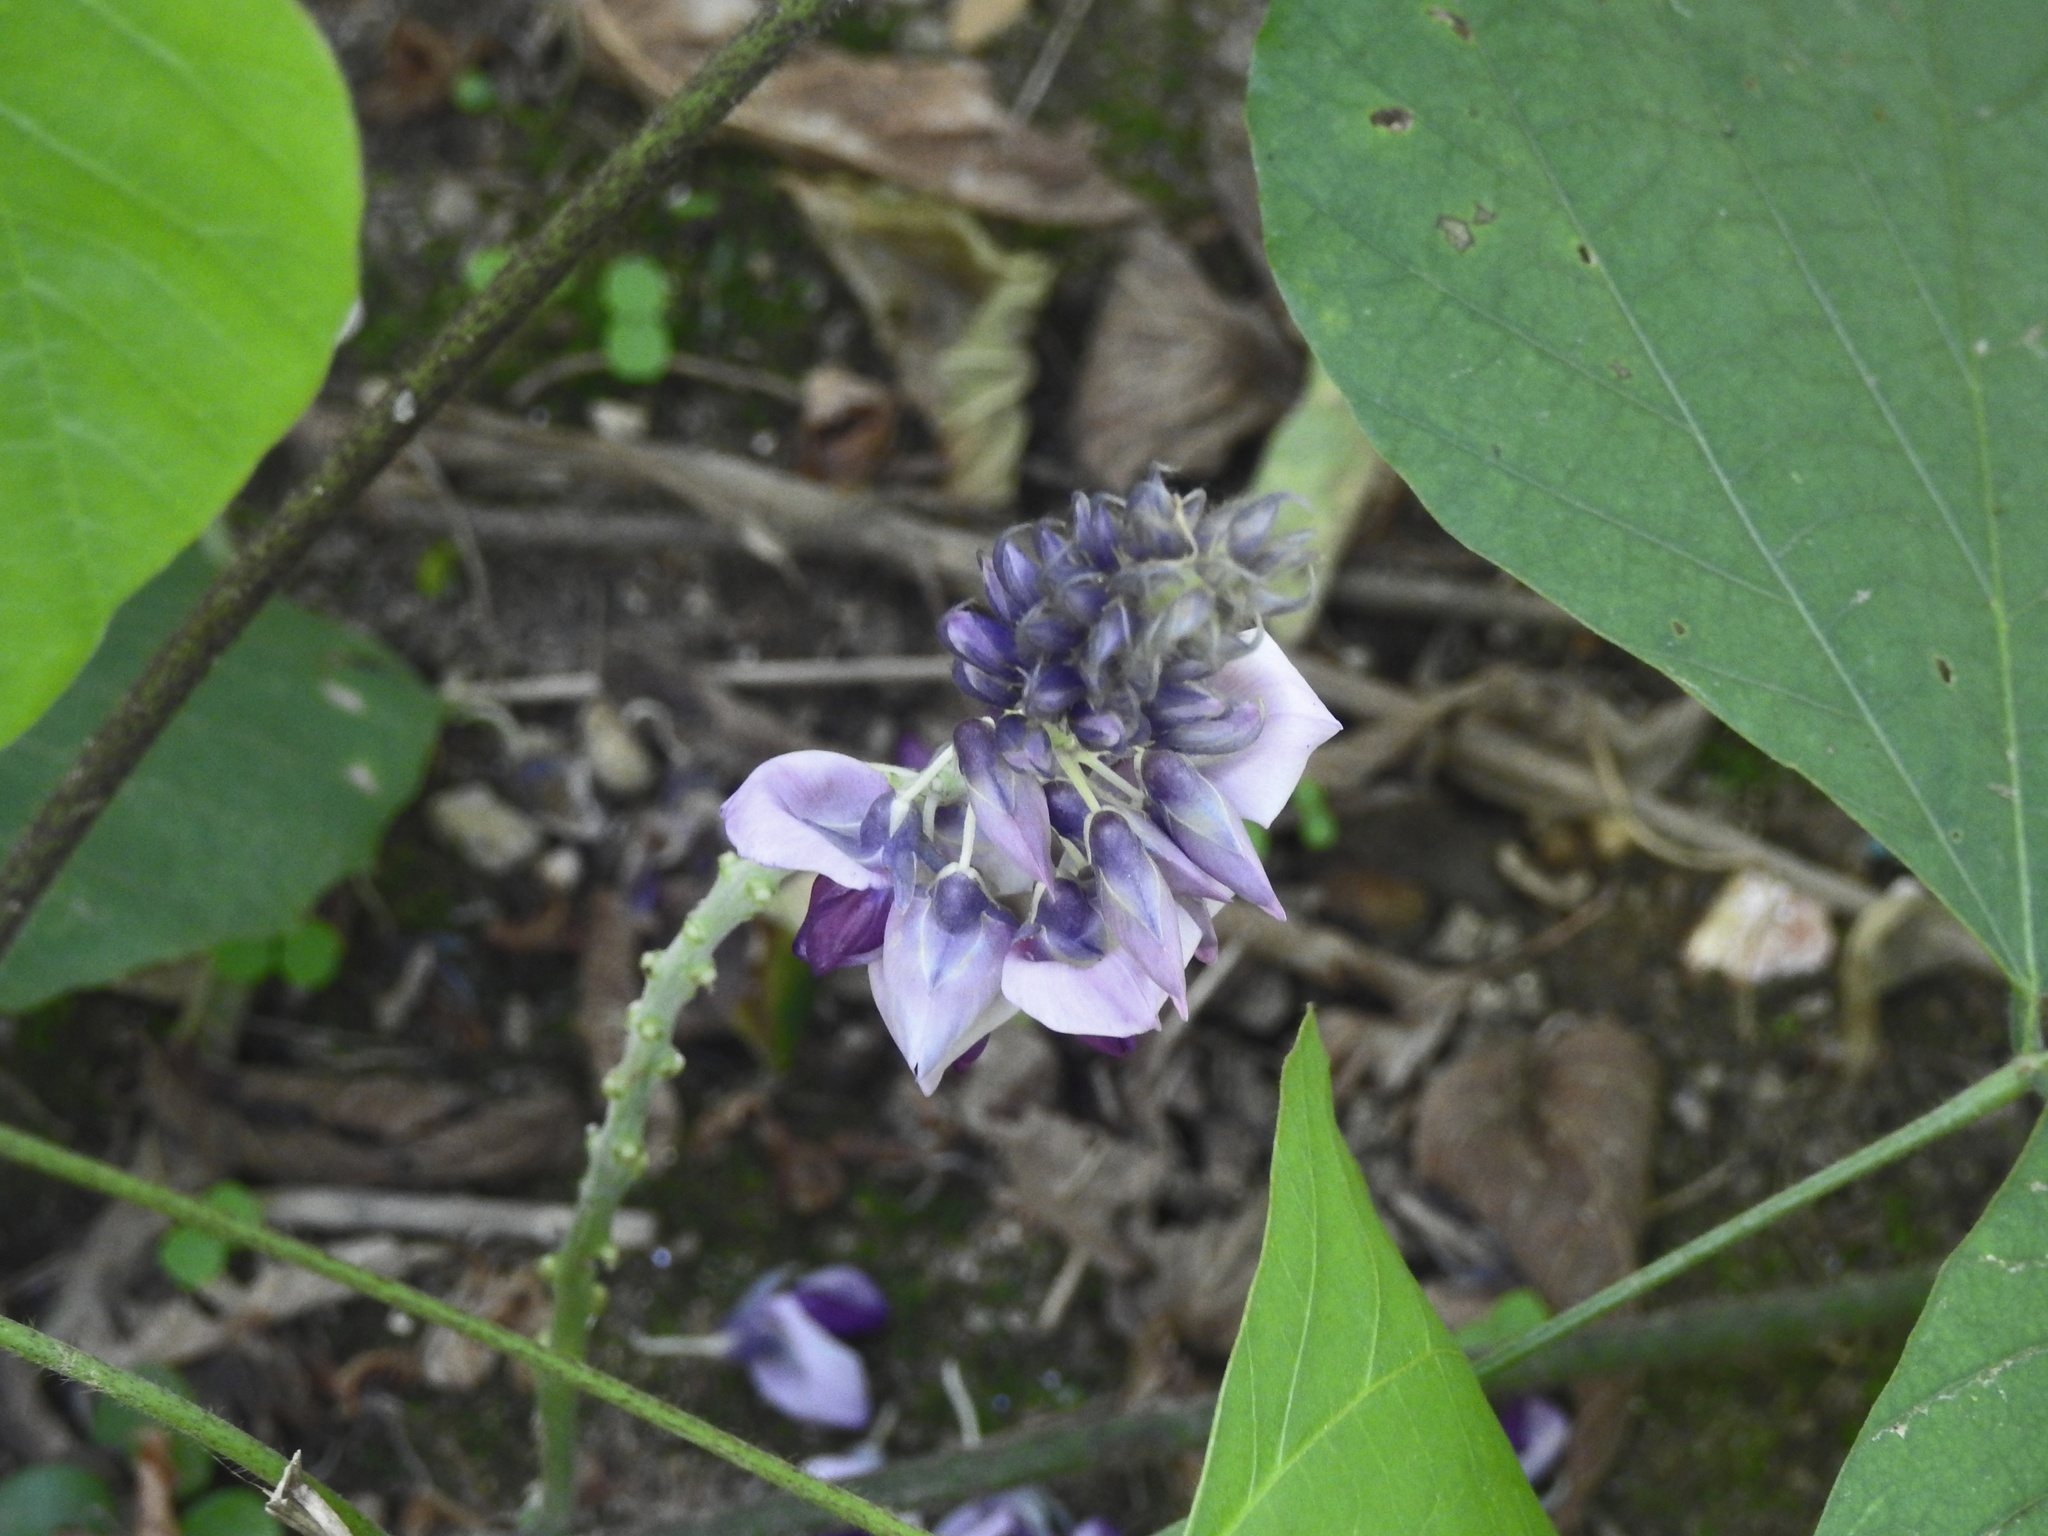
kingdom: Plantae
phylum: Tracheophyta
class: Magnoliopsida
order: Fabales
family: Fabaceae
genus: Pueraria
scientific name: Pueraria montana
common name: Kudzu
